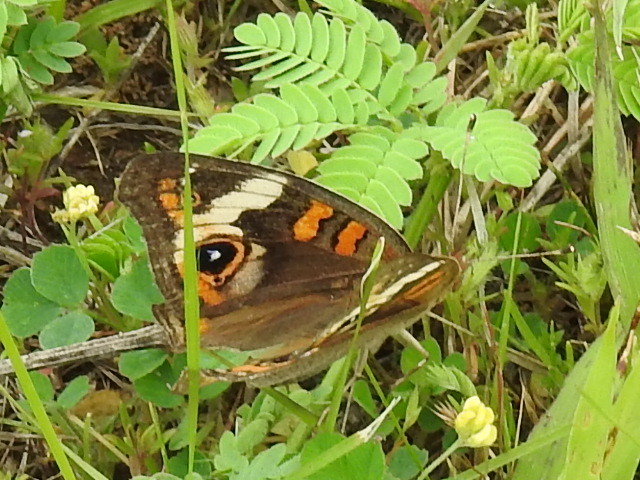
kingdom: Animalia
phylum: Arthropoda
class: Insecta
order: Lepidoptera
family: Nymphalidae
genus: Junonia
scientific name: Junonia coenia
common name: Common buckeye
